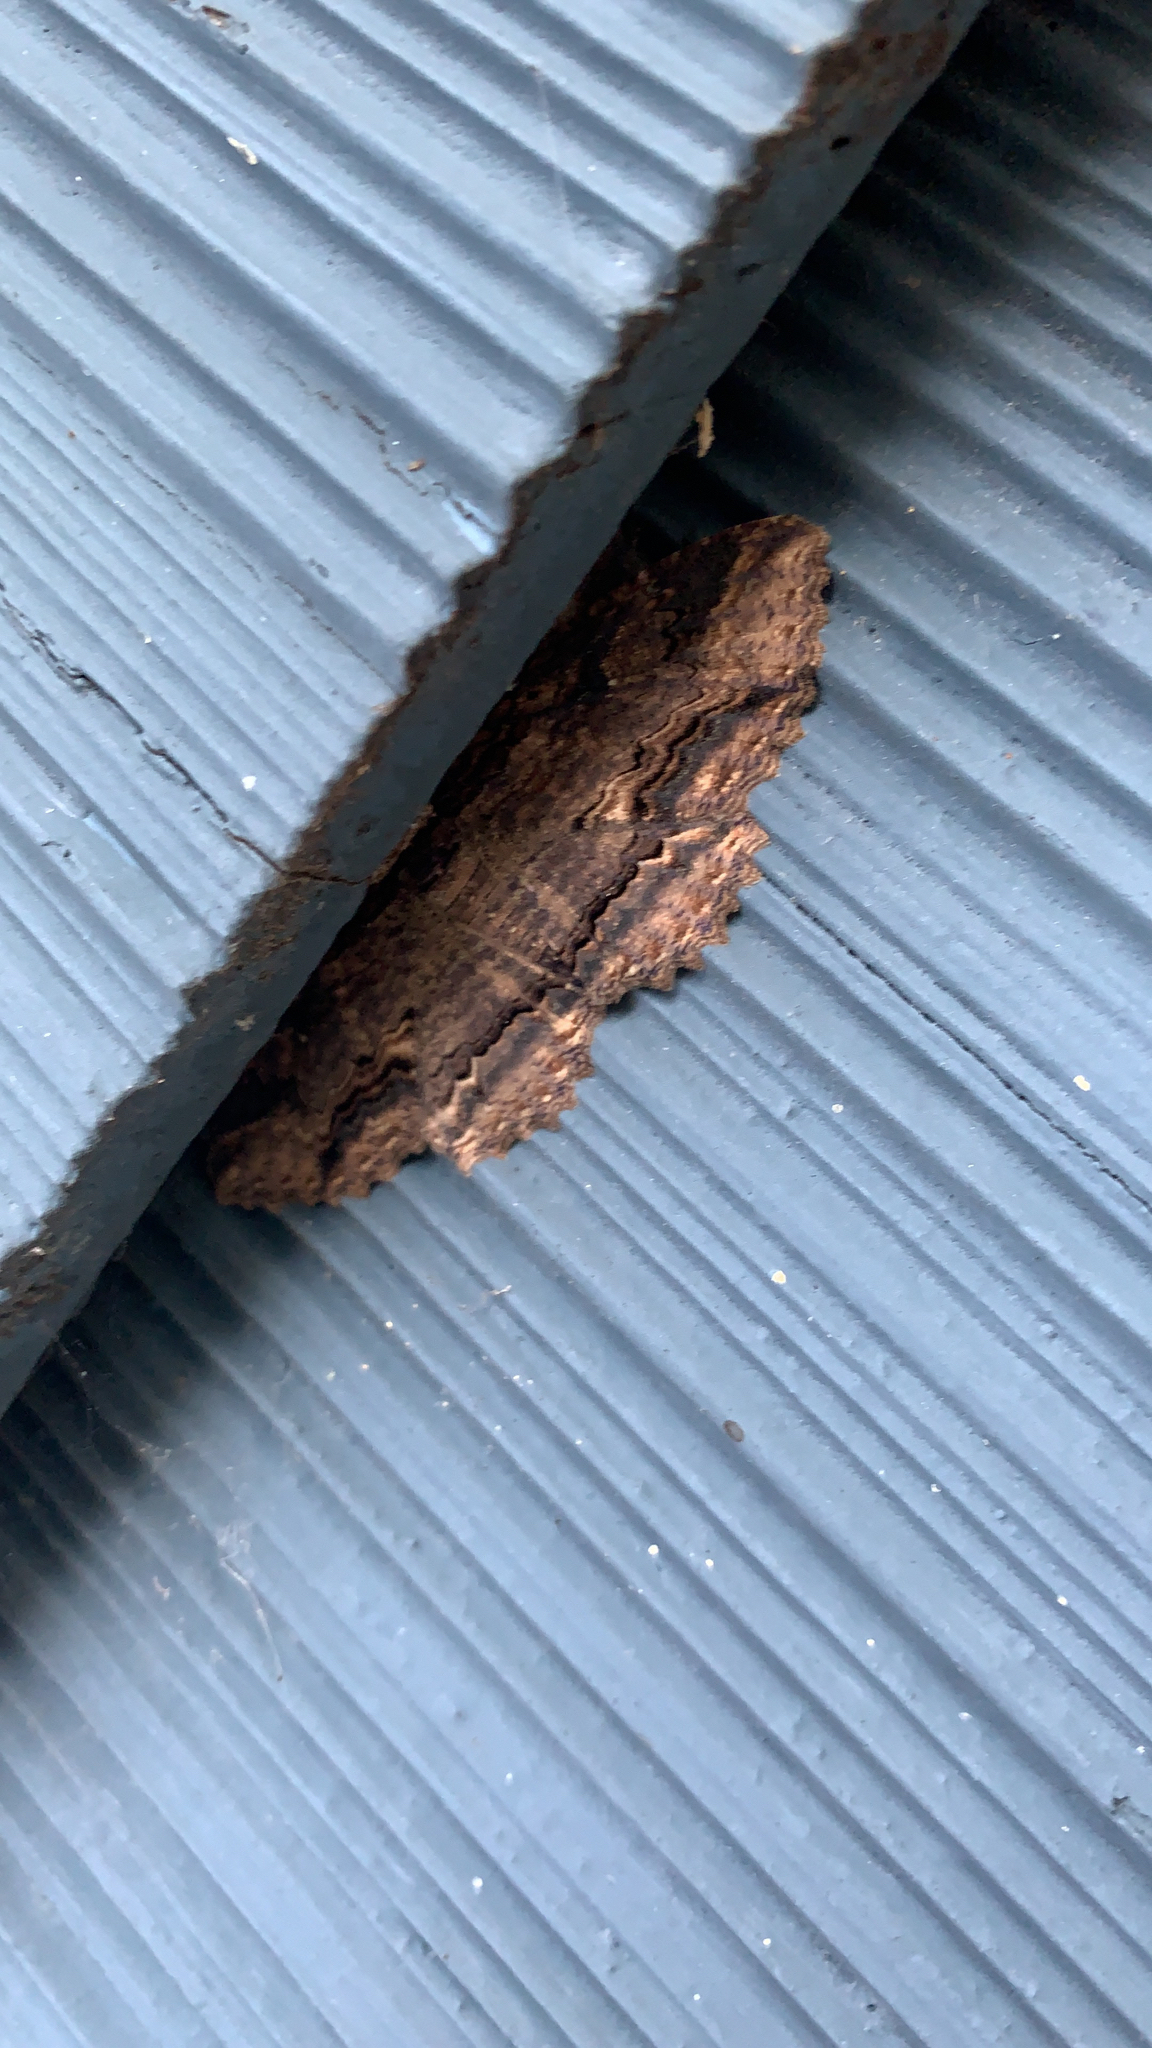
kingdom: Animalia
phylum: Arthropoda
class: Insecta
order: Lepidoptera
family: Erebidae
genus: Zale
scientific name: Zale lunata
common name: Lunate zale moth
